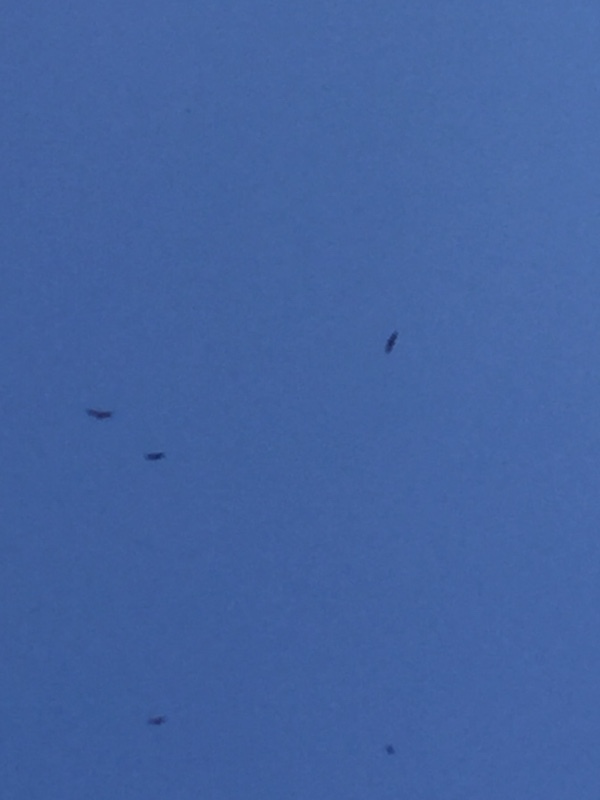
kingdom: Animalia
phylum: Chordata
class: Aves
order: Accipitriformes
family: Accipitridae
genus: Gyps
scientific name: Gyps fulvus
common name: Griffon vulture
